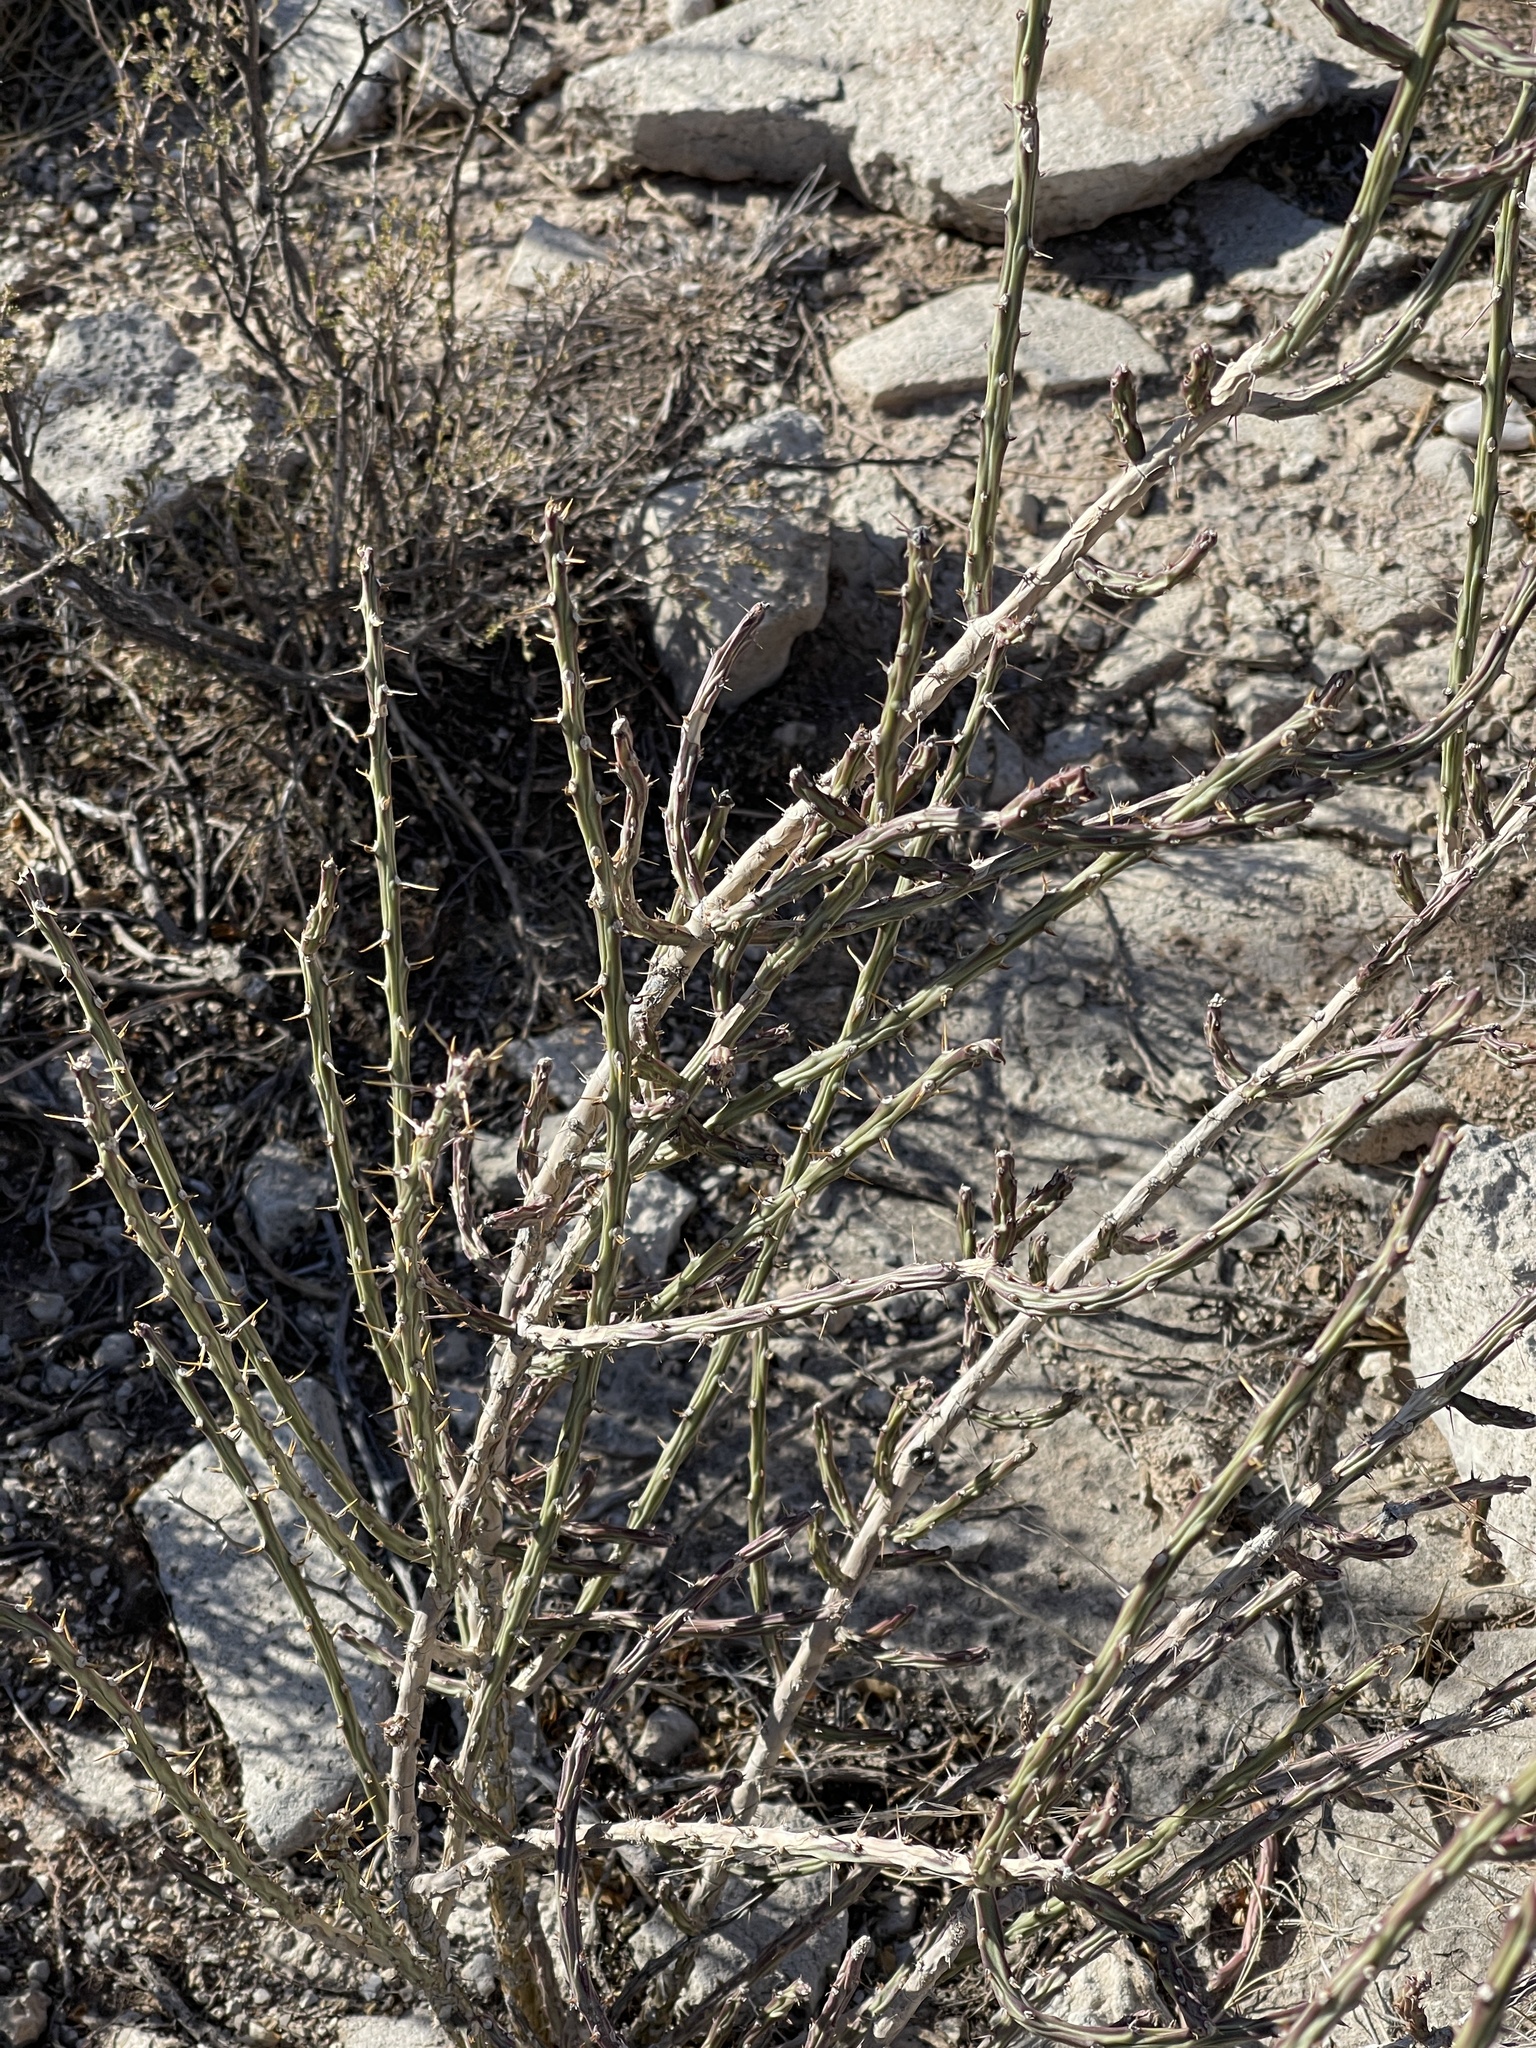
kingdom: Plantae
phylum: Tracheophyta
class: Magnoliopsida
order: Caryophyllales
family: Cactaceae
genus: Cylindropuntia
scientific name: Cylindropuntia leptocaulis
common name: Christmas cactus
